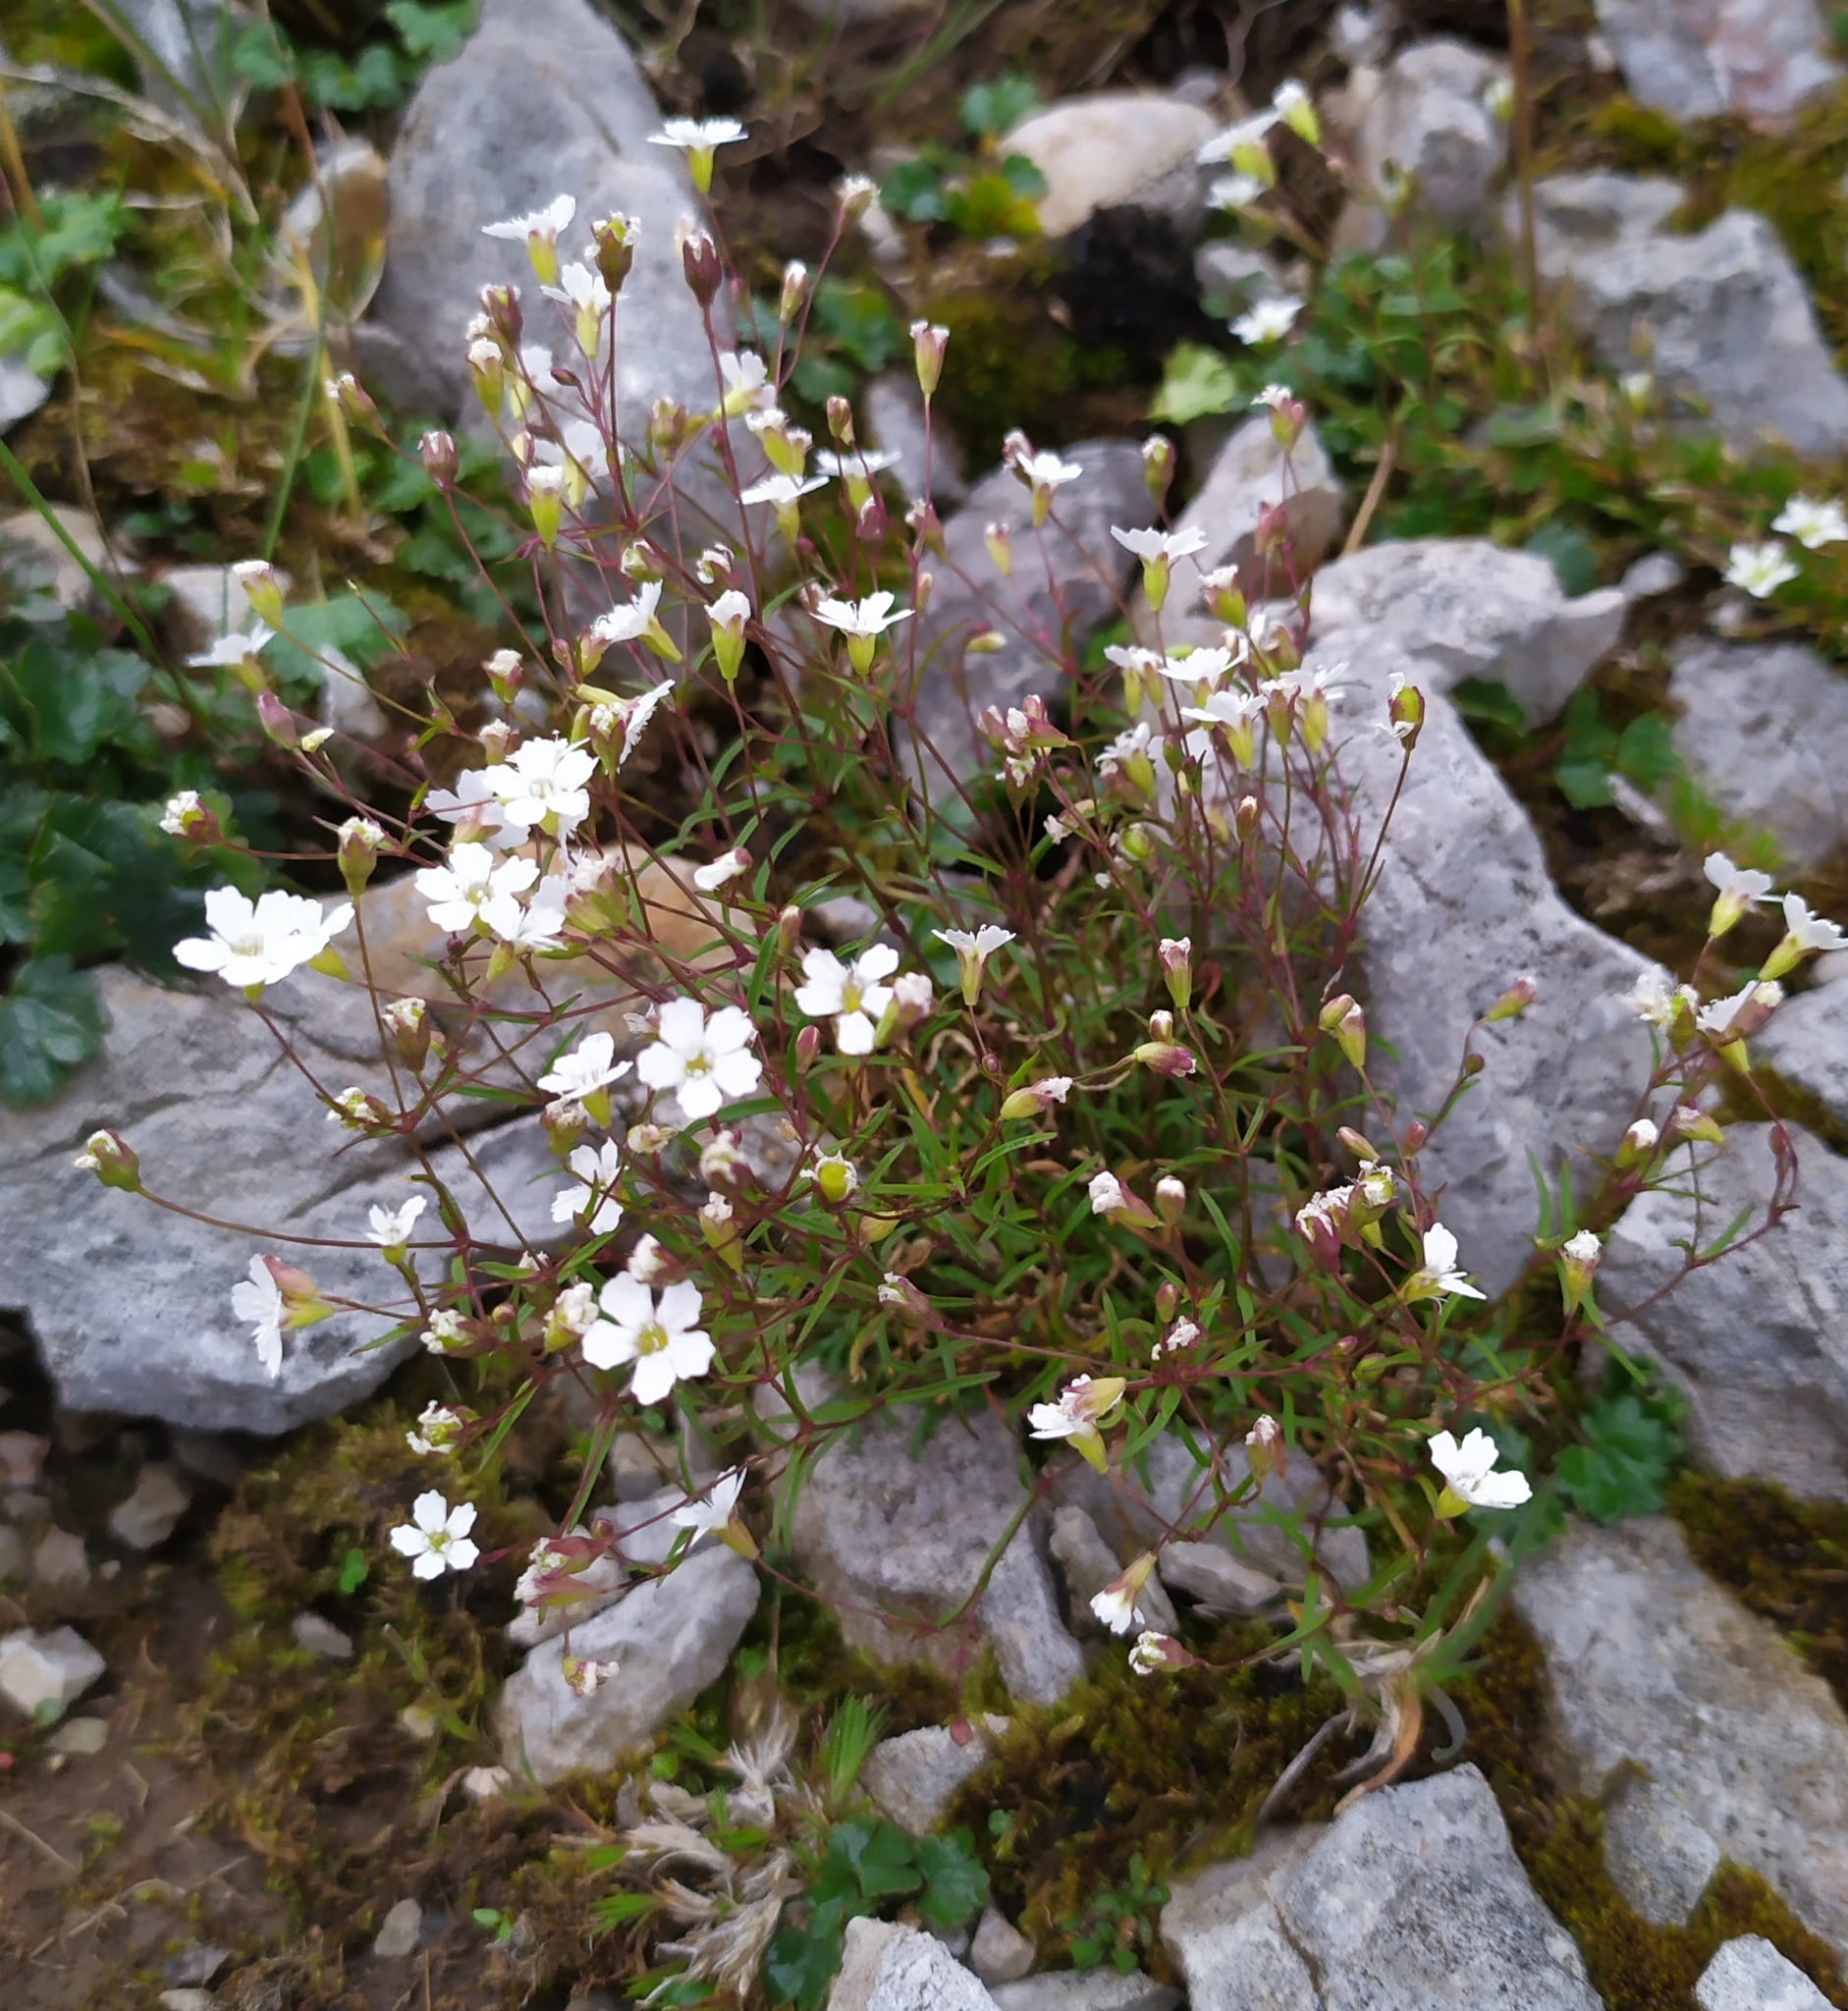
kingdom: Plantae
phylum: Tracheophyta
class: Magnoliopsida
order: Caryophyllales
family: Caryophyllaceae
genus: Heliosperma
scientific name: Heliosperma pusillum
